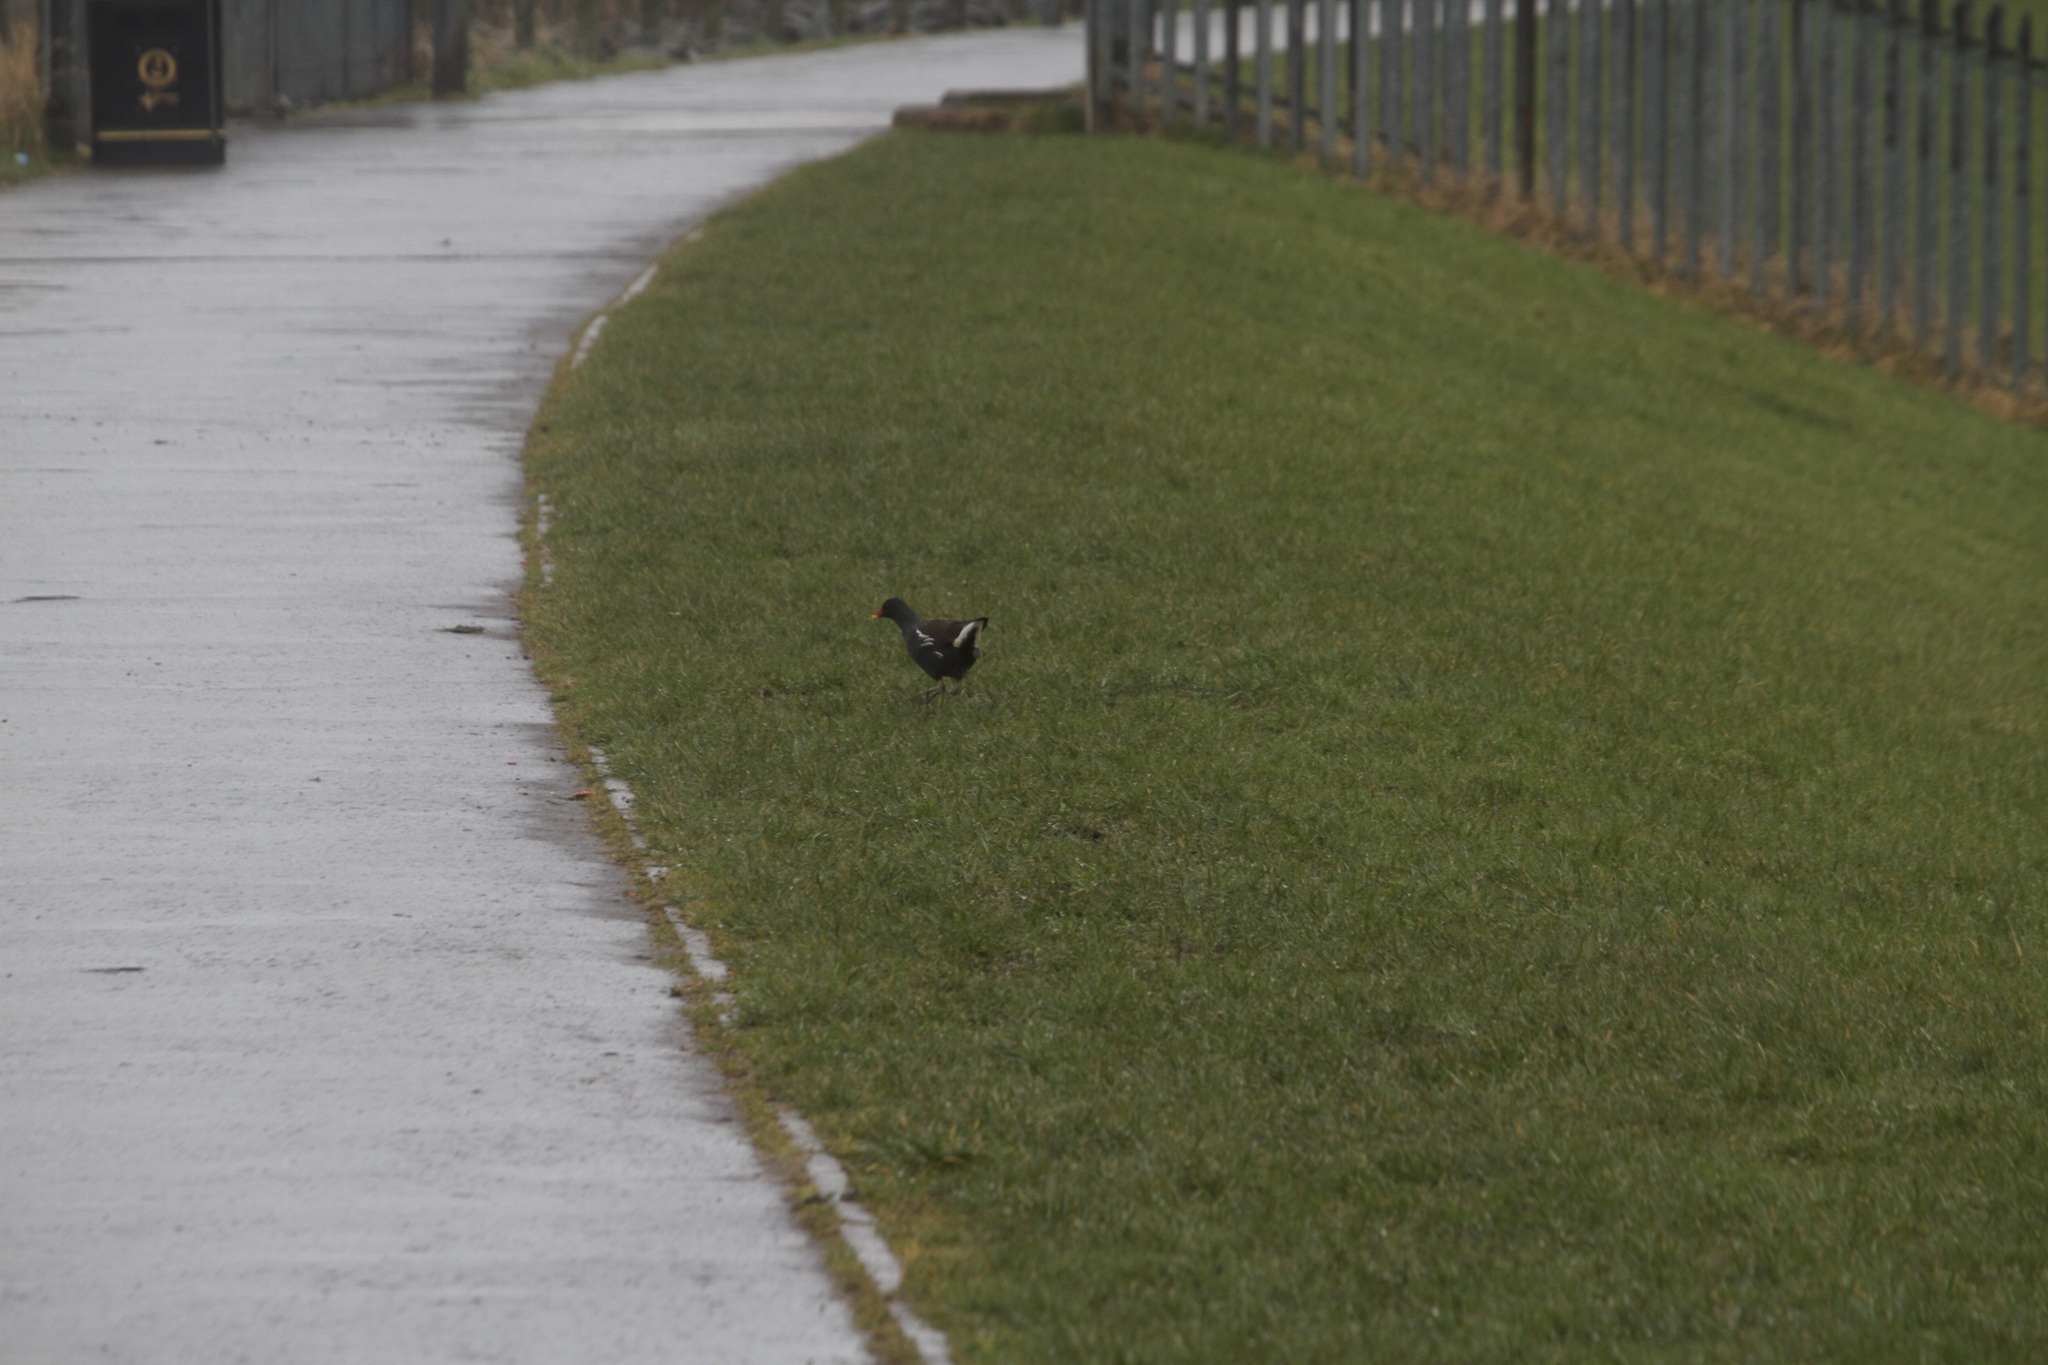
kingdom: Animalia
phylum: Chordata
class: Aves
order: Gruiformes
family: Rallidae
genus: Gallinula
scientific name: Gallinula chloropus
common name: Common moorhen
